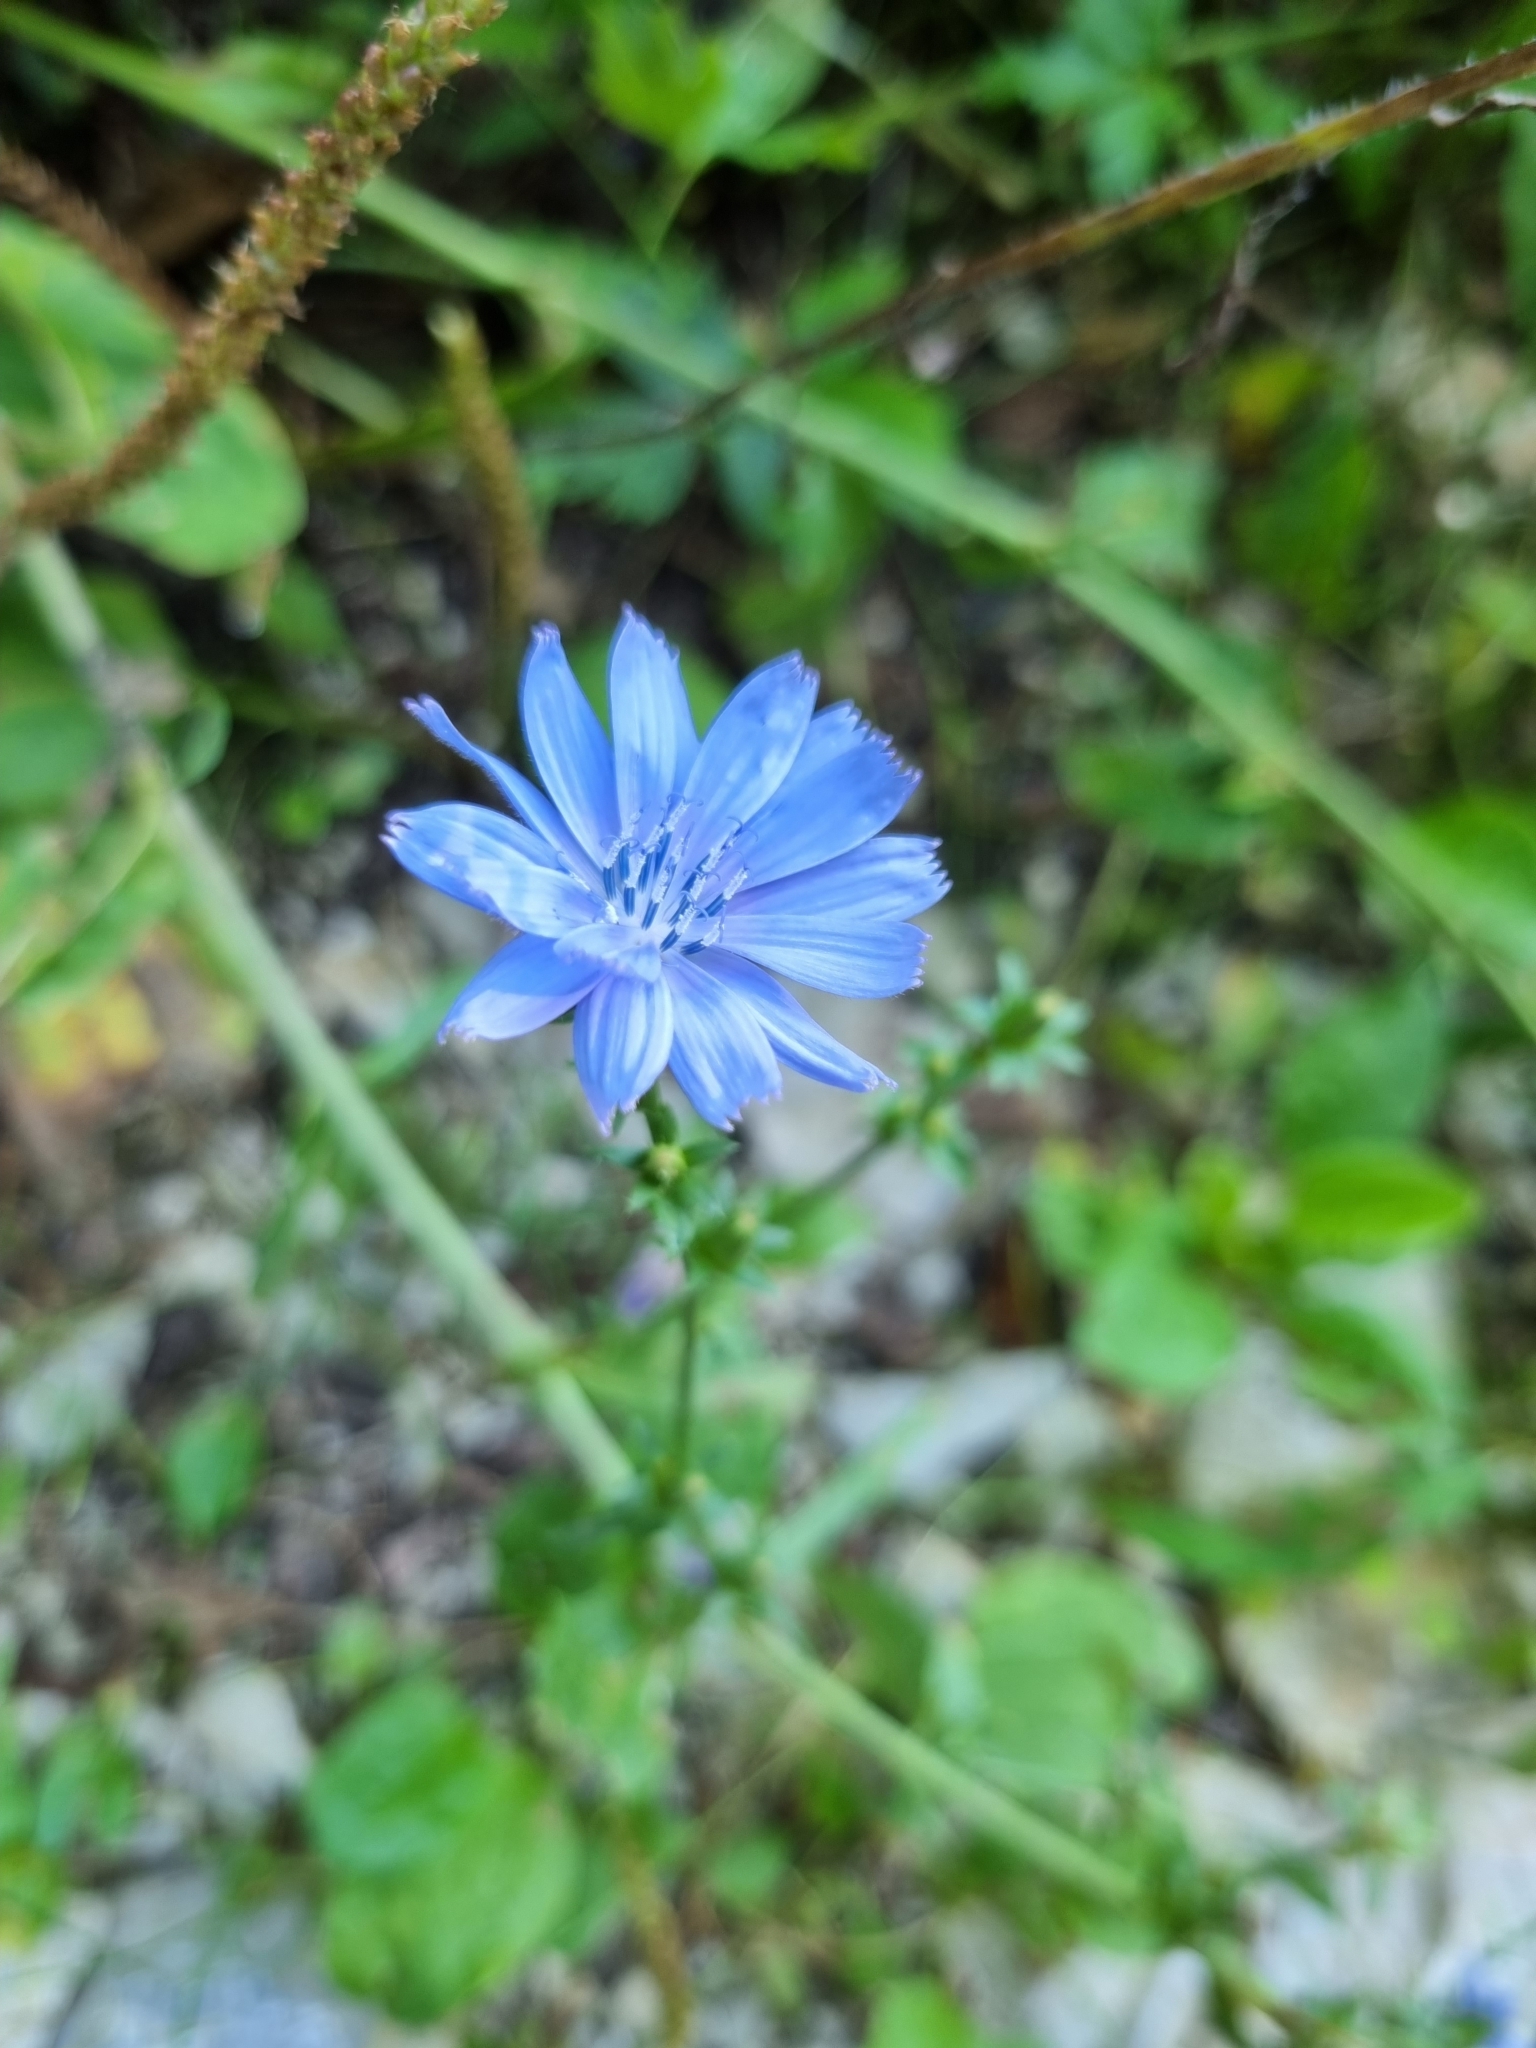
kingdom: Plantae
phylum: Tracheophyta
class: Magnoliopsida
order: Asterales
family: Asteraceae
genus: Cichorium
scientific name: Cichorium intybus
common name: Chicory
